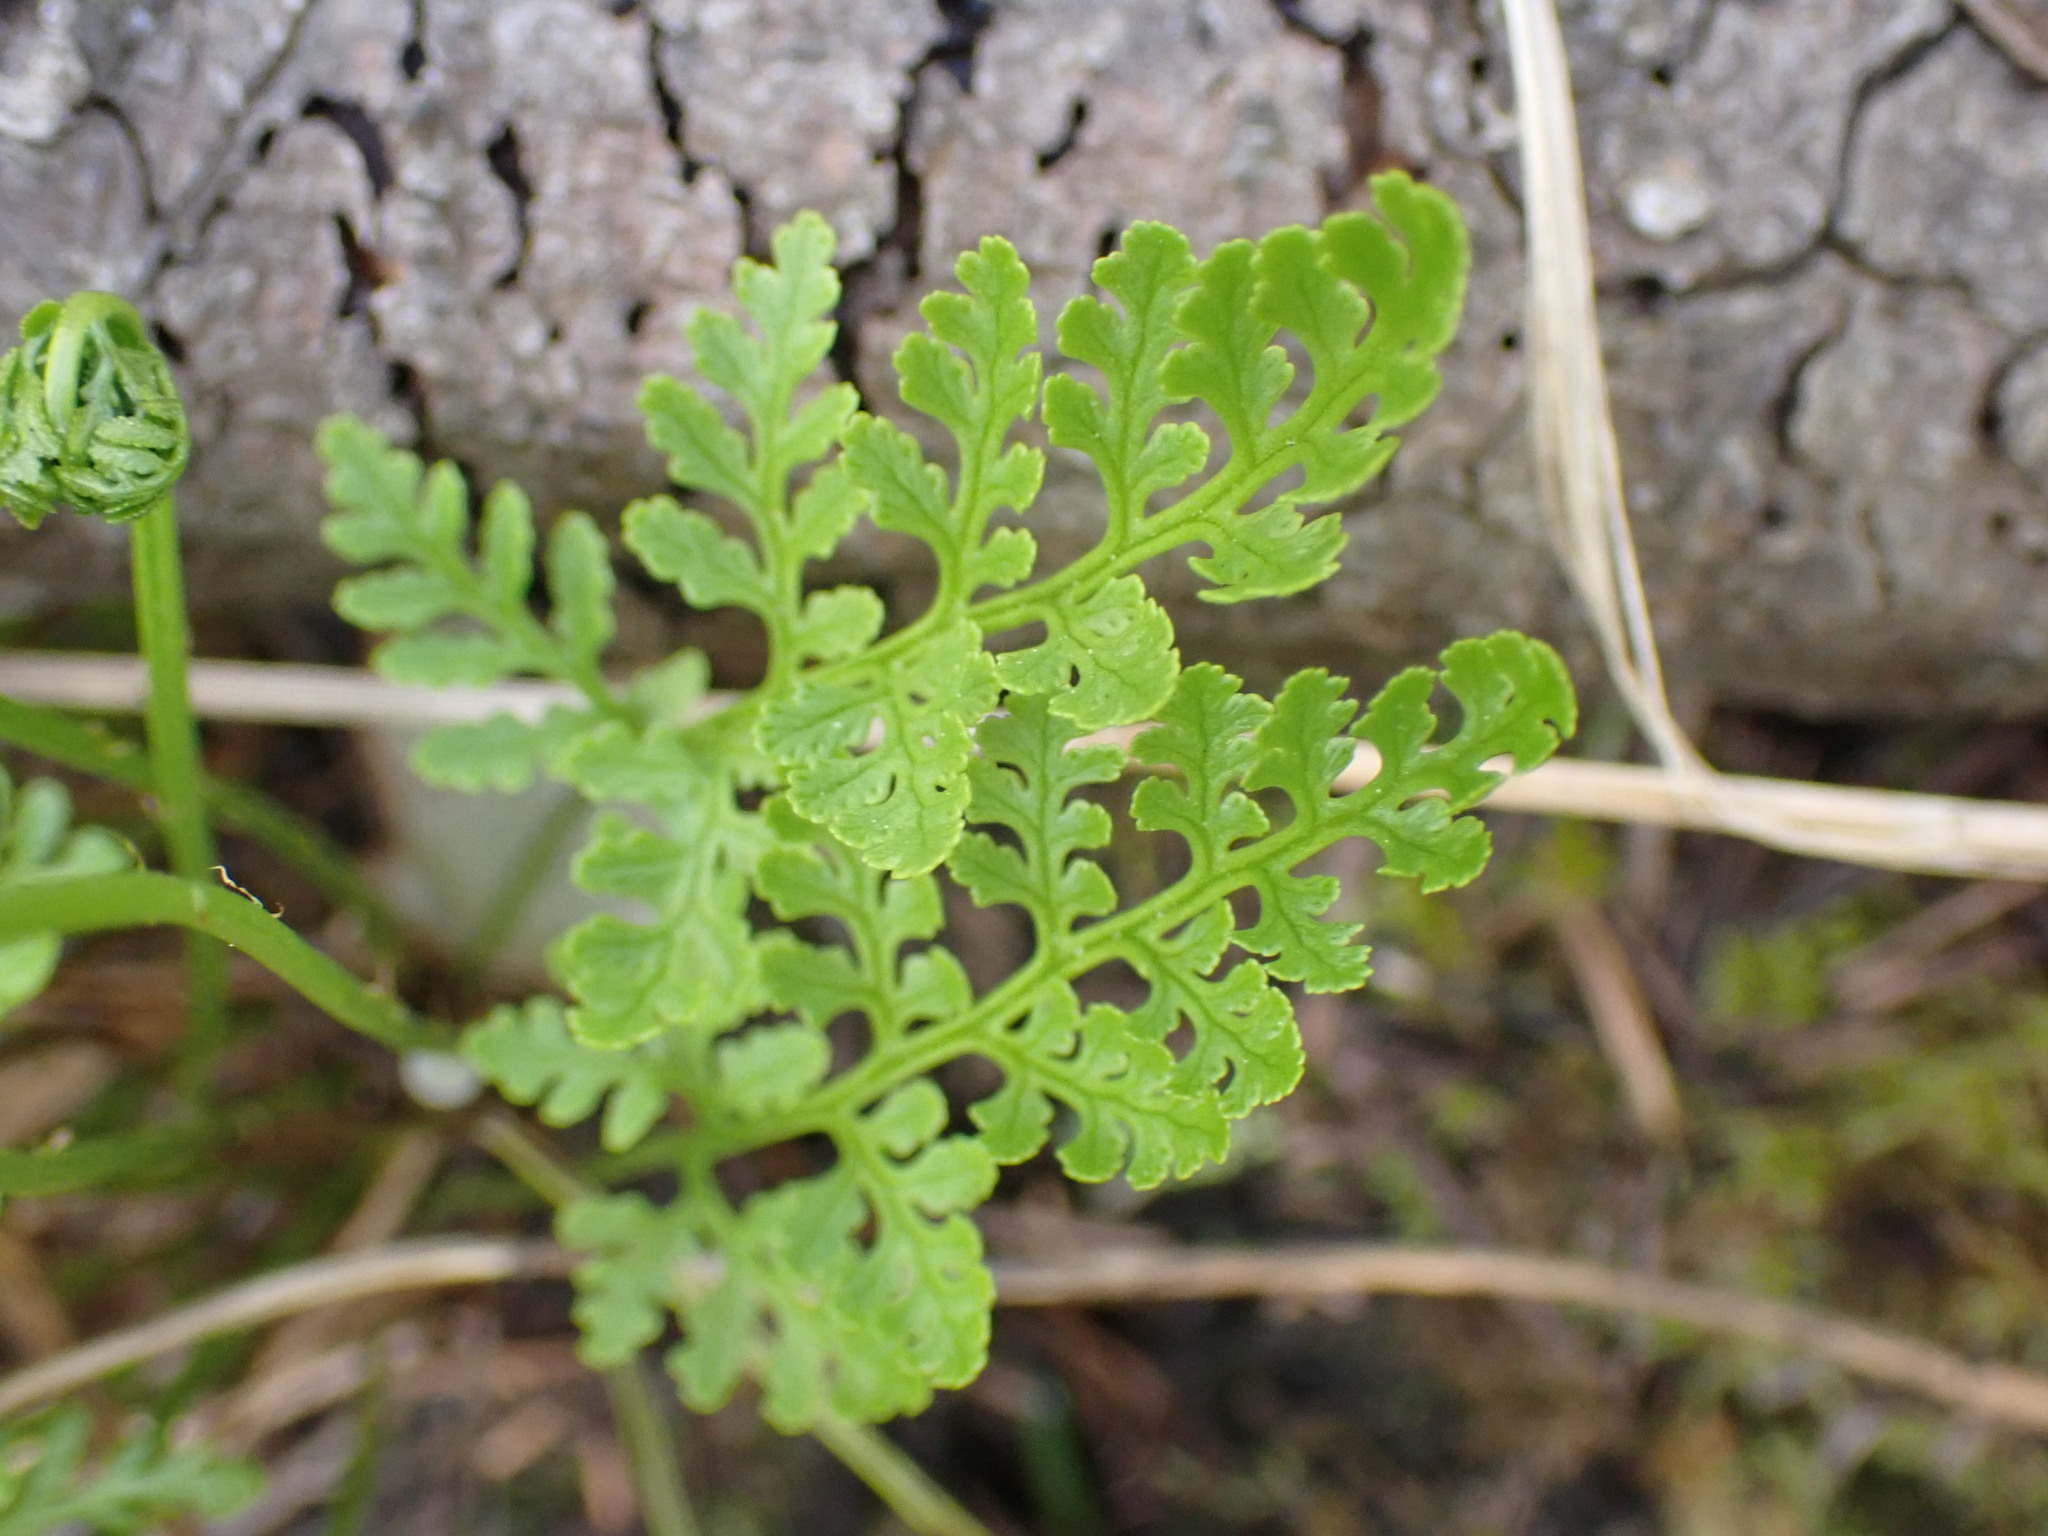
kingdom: Plantae
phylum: Tracheophyta
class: Polypodiopsida
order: Polypodiales
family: Pteridaceae
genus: Cryptogramma
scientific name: Cryptogramma acrostichoides
